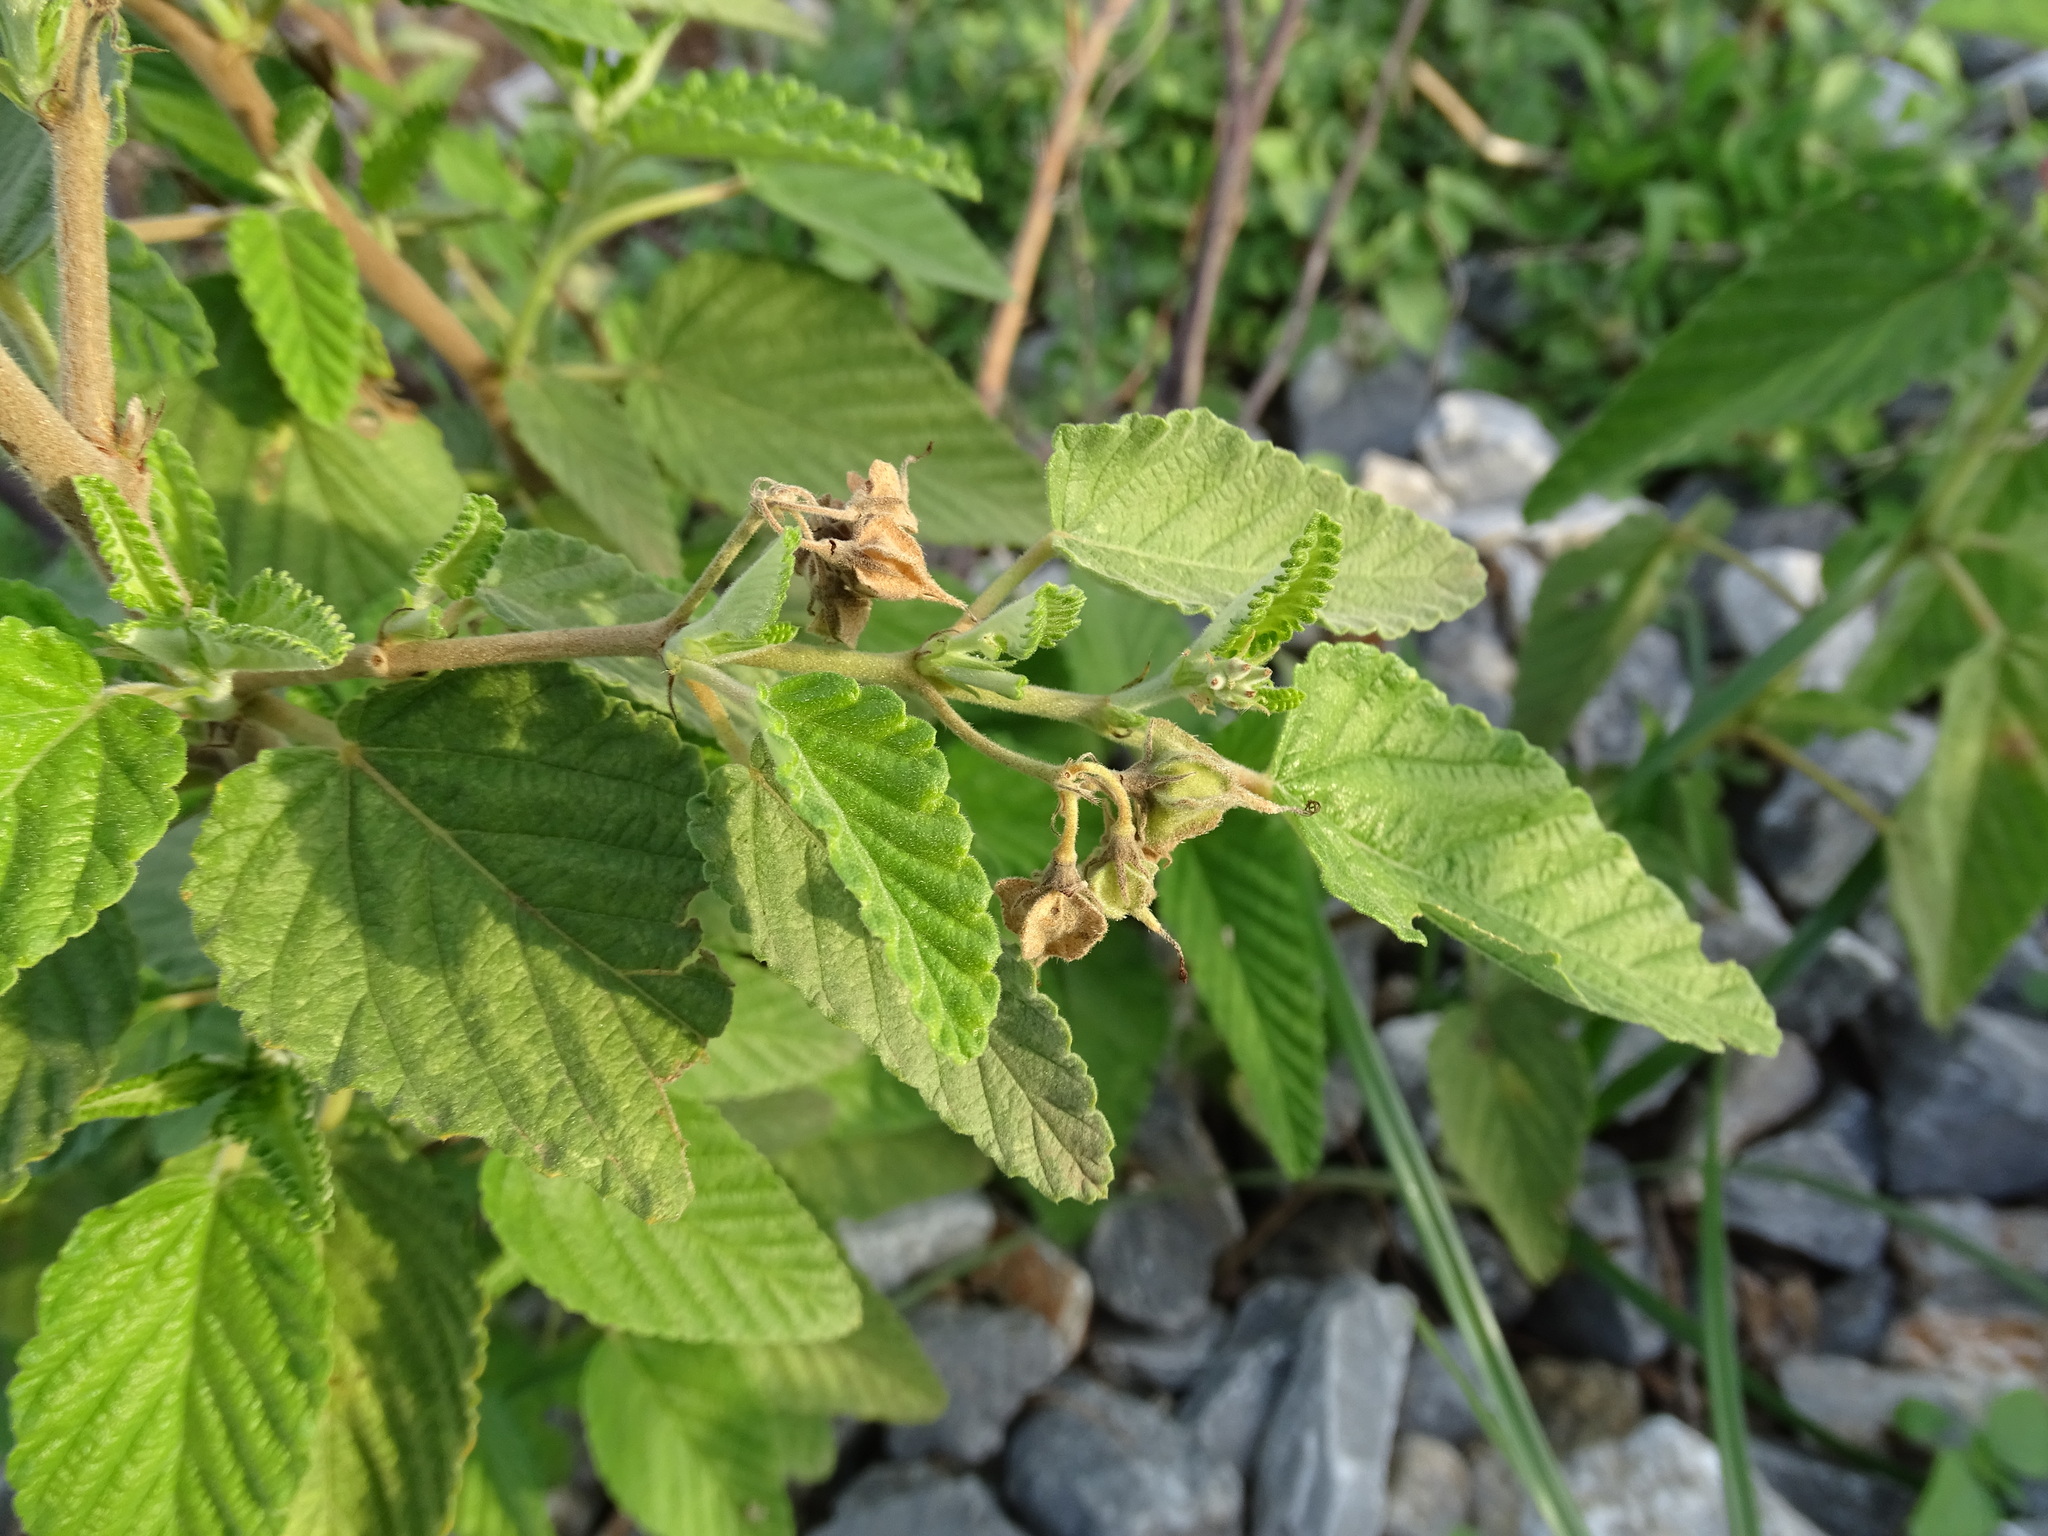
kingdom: Plantae
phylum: Tracheophyta
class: Magnoliopsida
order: Malvales
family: Malvaceae
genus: Melochia
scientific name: Melochia tomentosa
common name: Black torch
